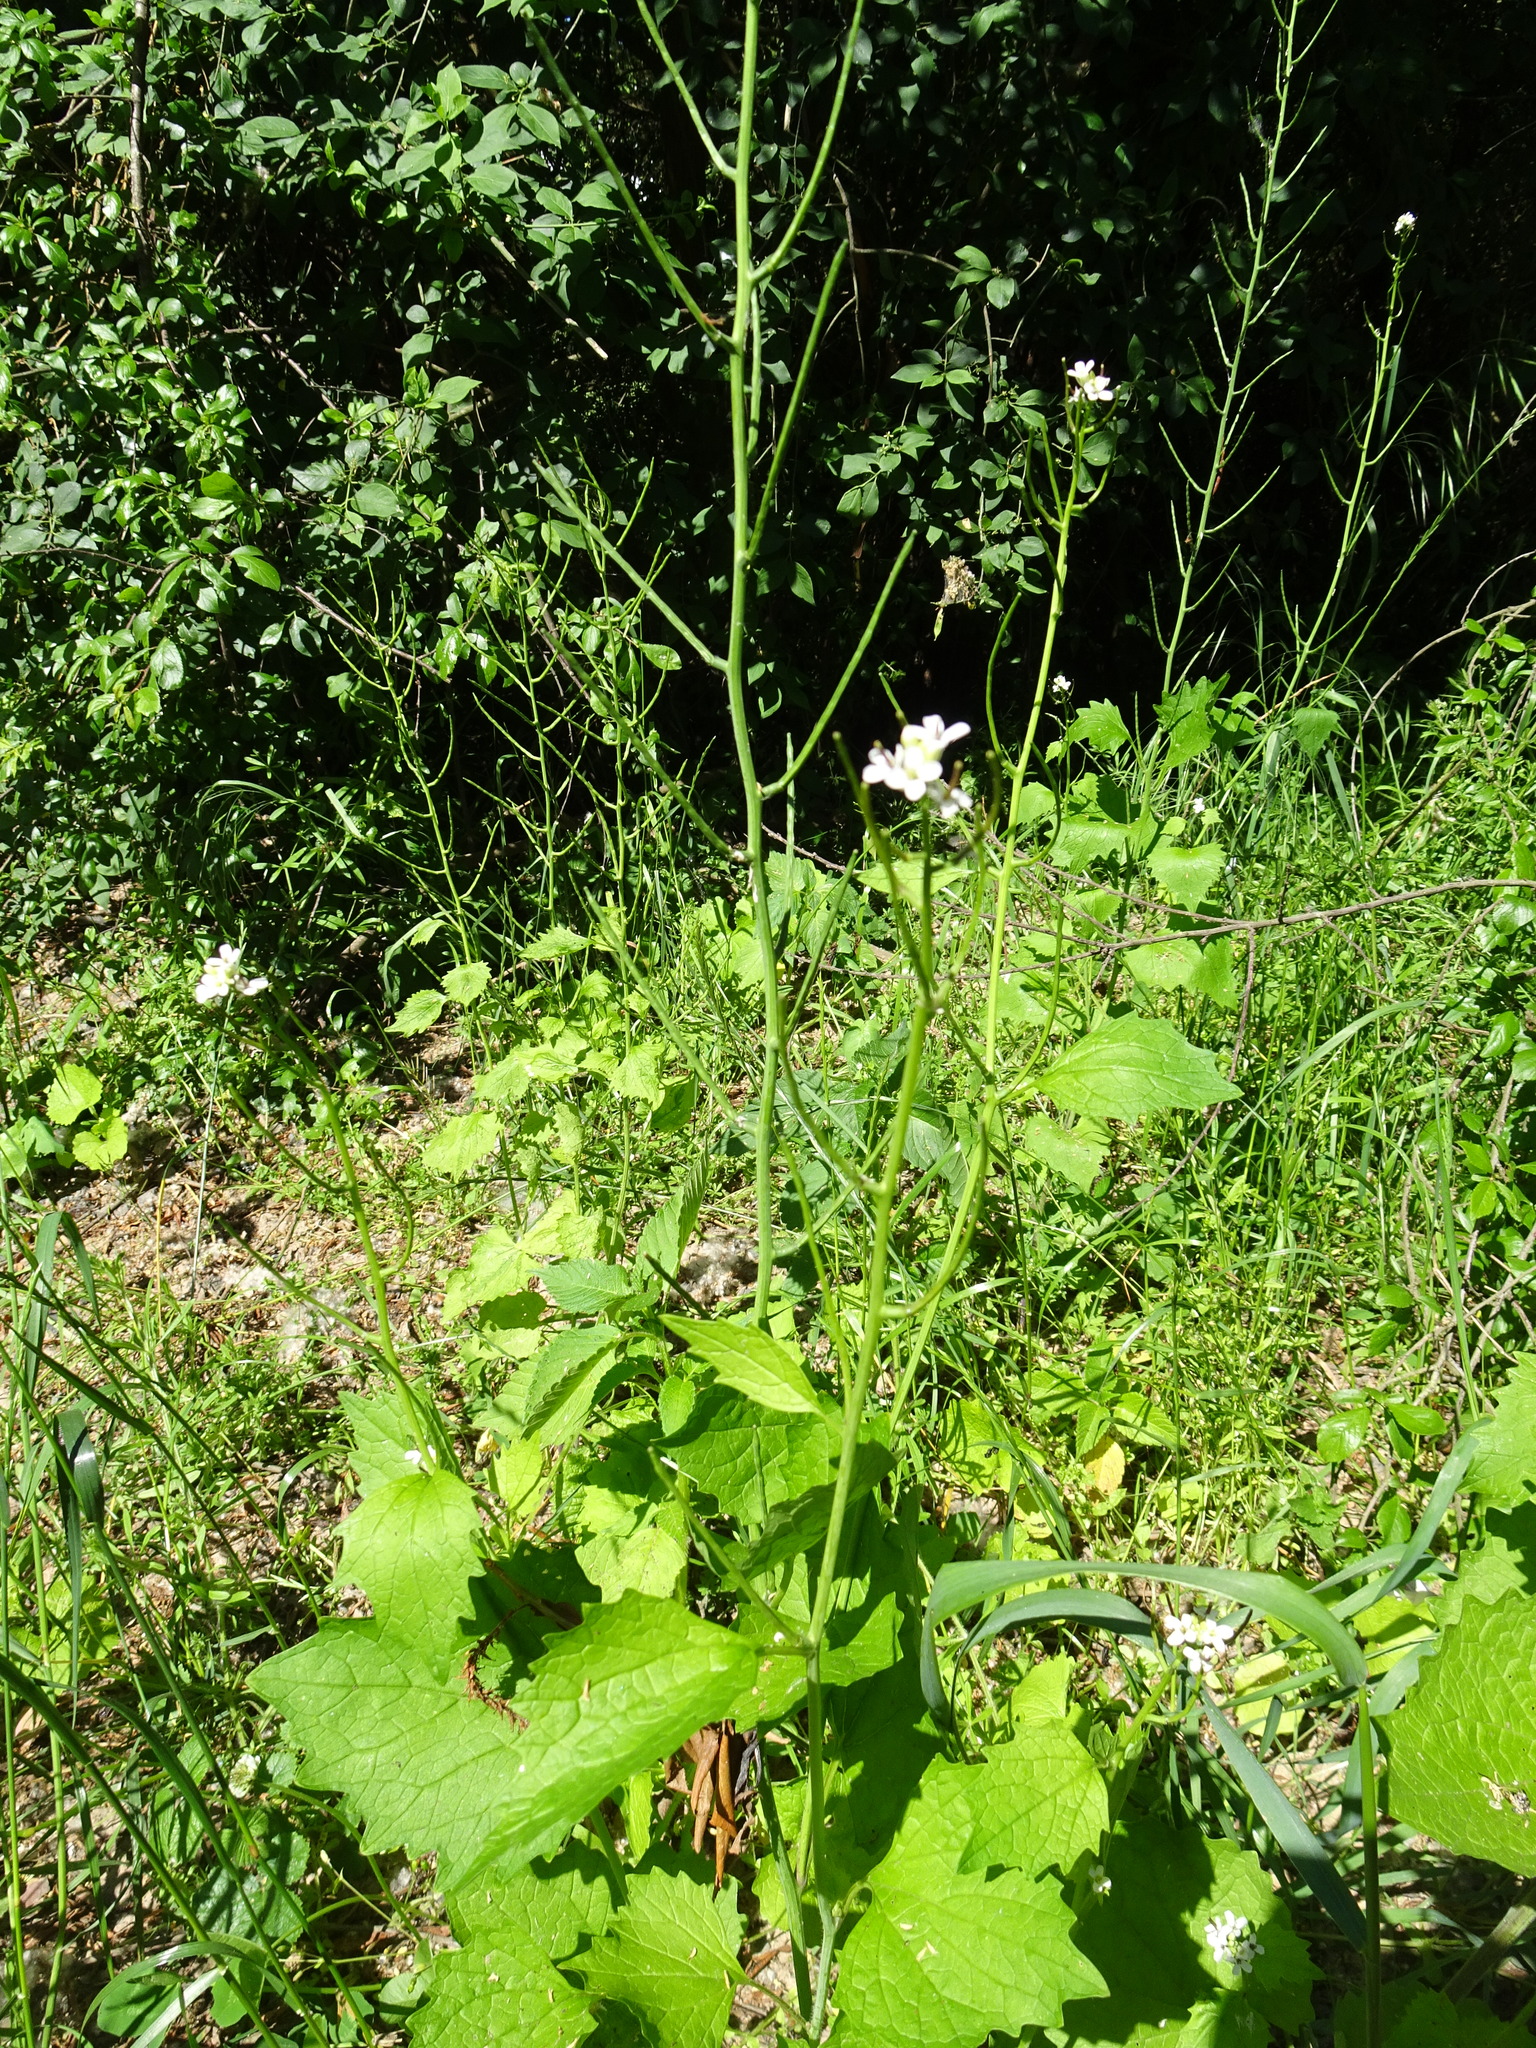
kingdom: Plantae
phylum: Tracheophyta
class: Magnoliopsida
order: Brassicales
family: Brassicaceae
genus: Alliaria
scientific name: Alliaria petiolata
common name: Garlic mustard
